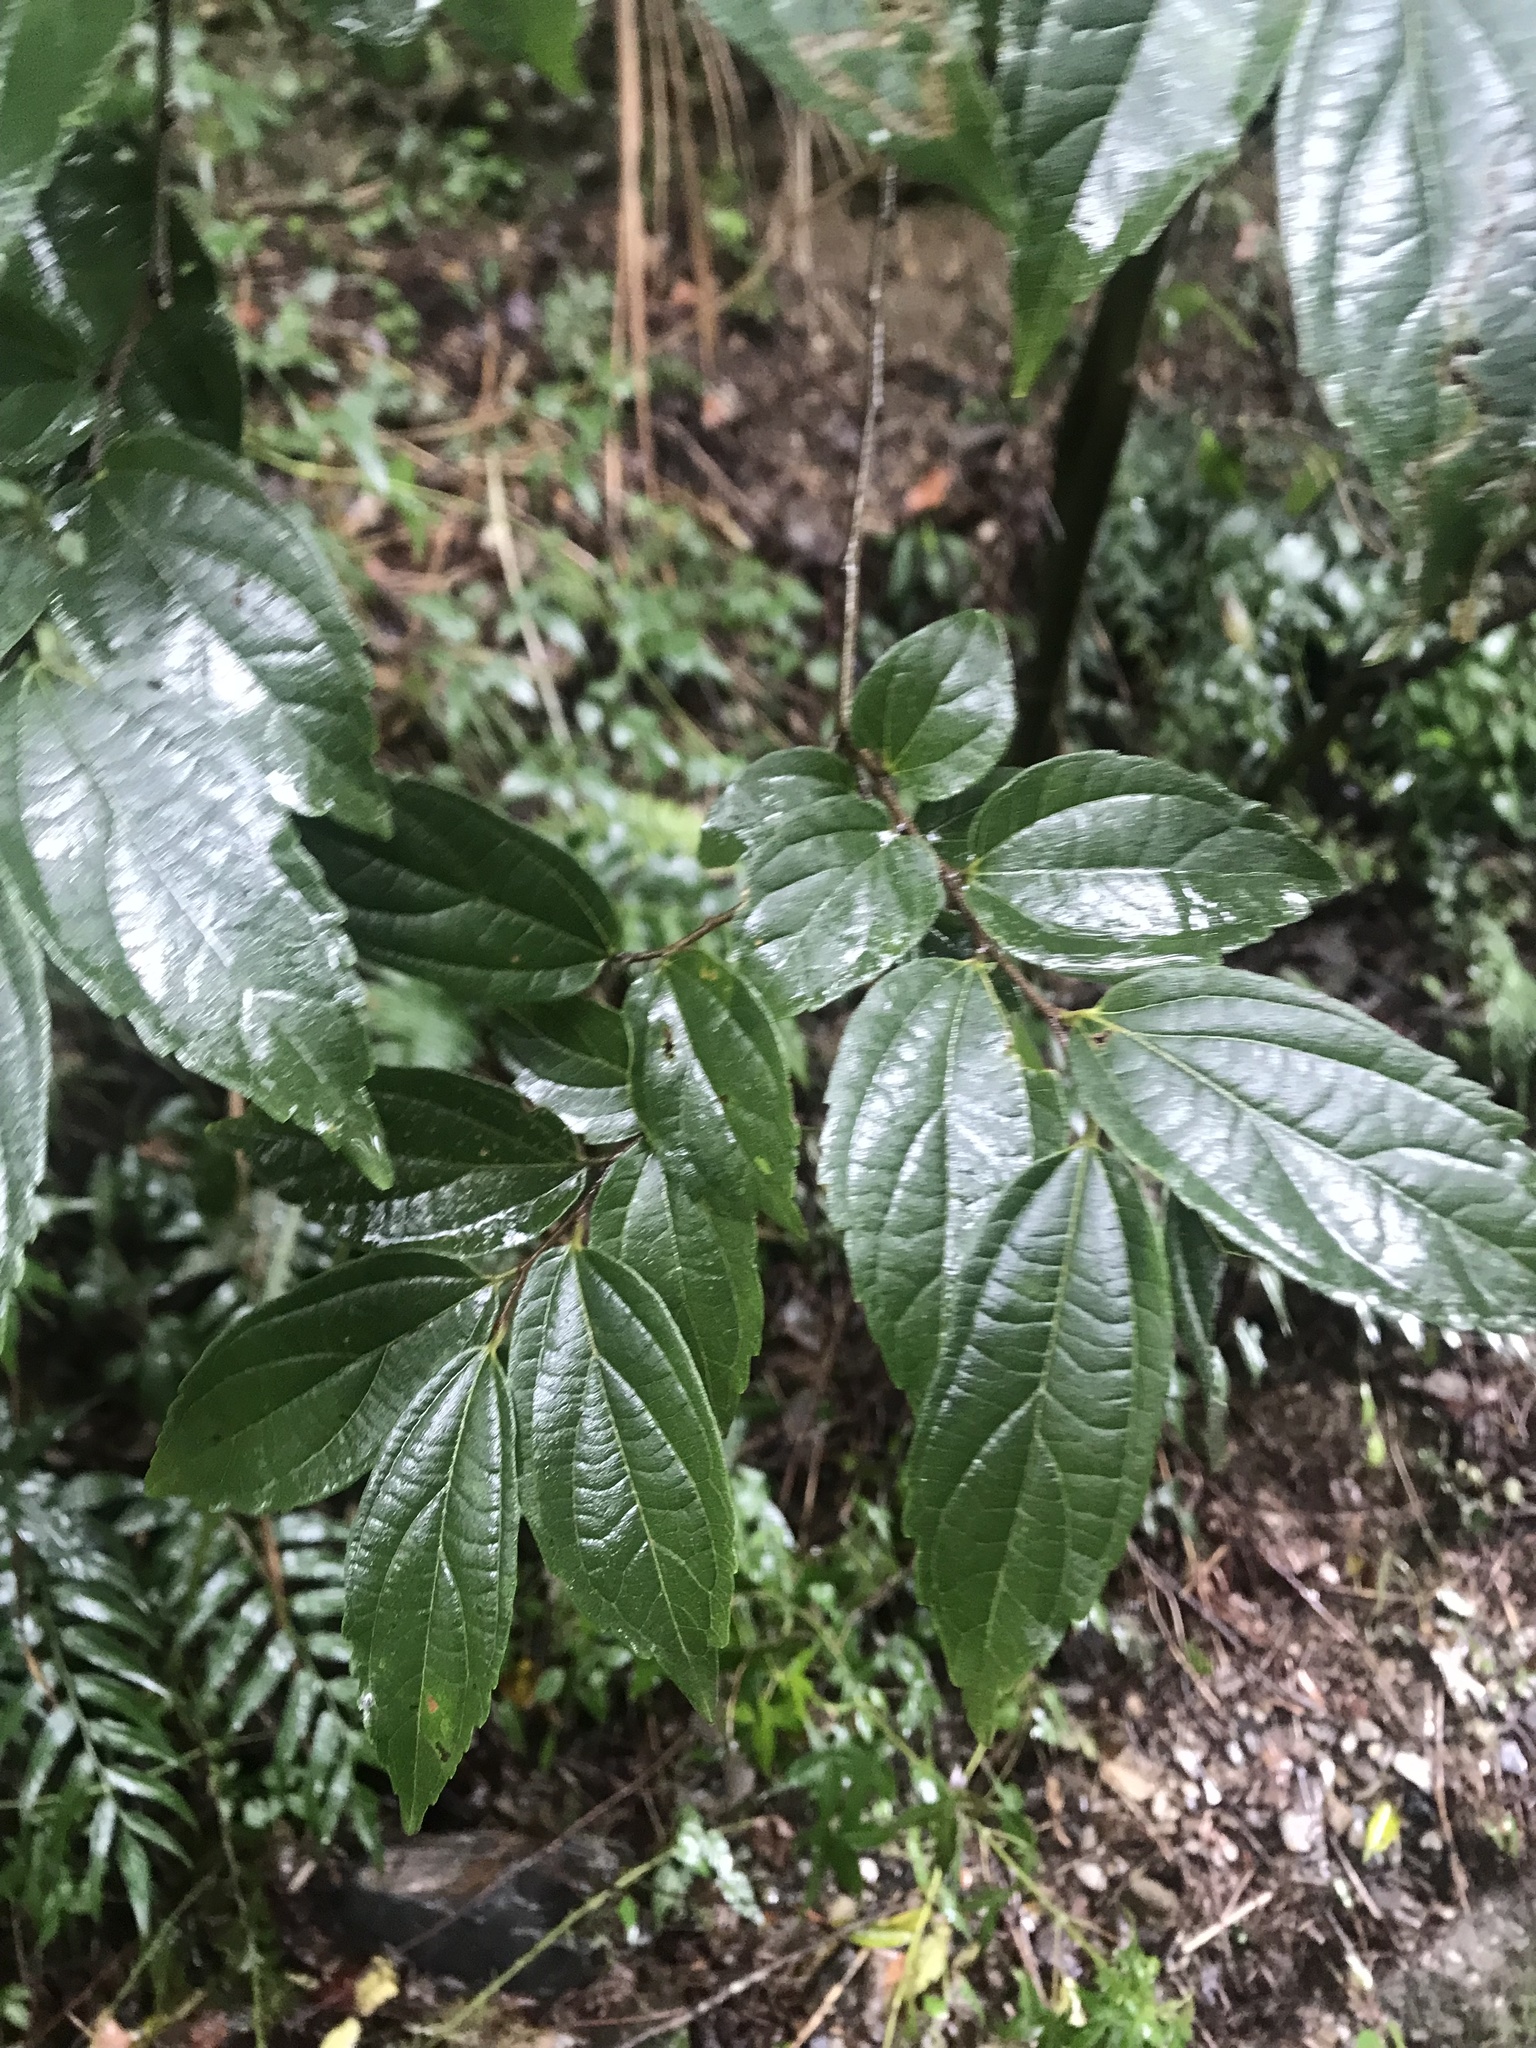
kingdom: Plantae
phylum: Tracheophyta
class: Magnoliopsida
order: Rosales
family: Cannabaceae
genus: Celtis
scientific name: Celtis sinensis
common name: Chinese hackberry
